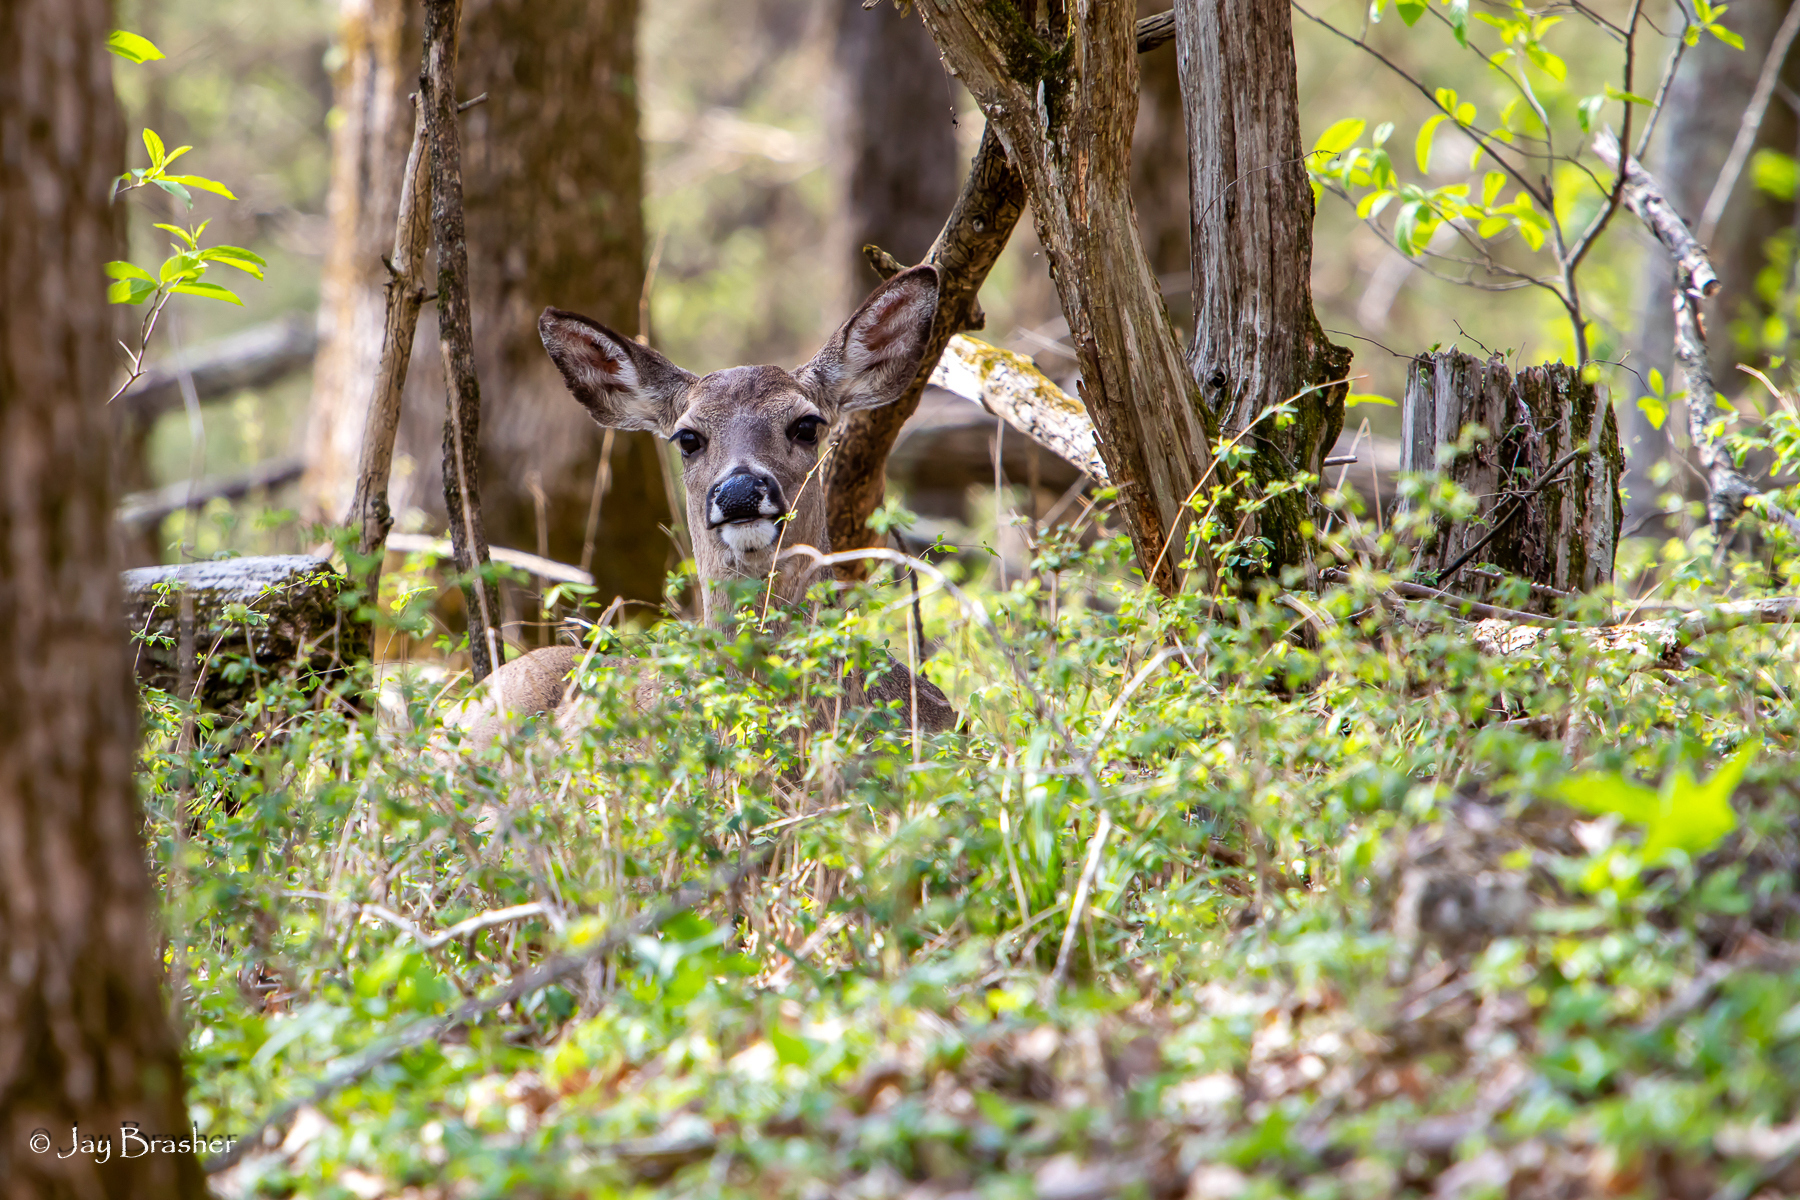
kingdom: Animalia
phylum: Chordata
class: Mammalia
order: Artiodactyla
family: Cervidae
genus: Odocoileus
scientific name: Odocoileus virginianus
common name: White-tailed deer
